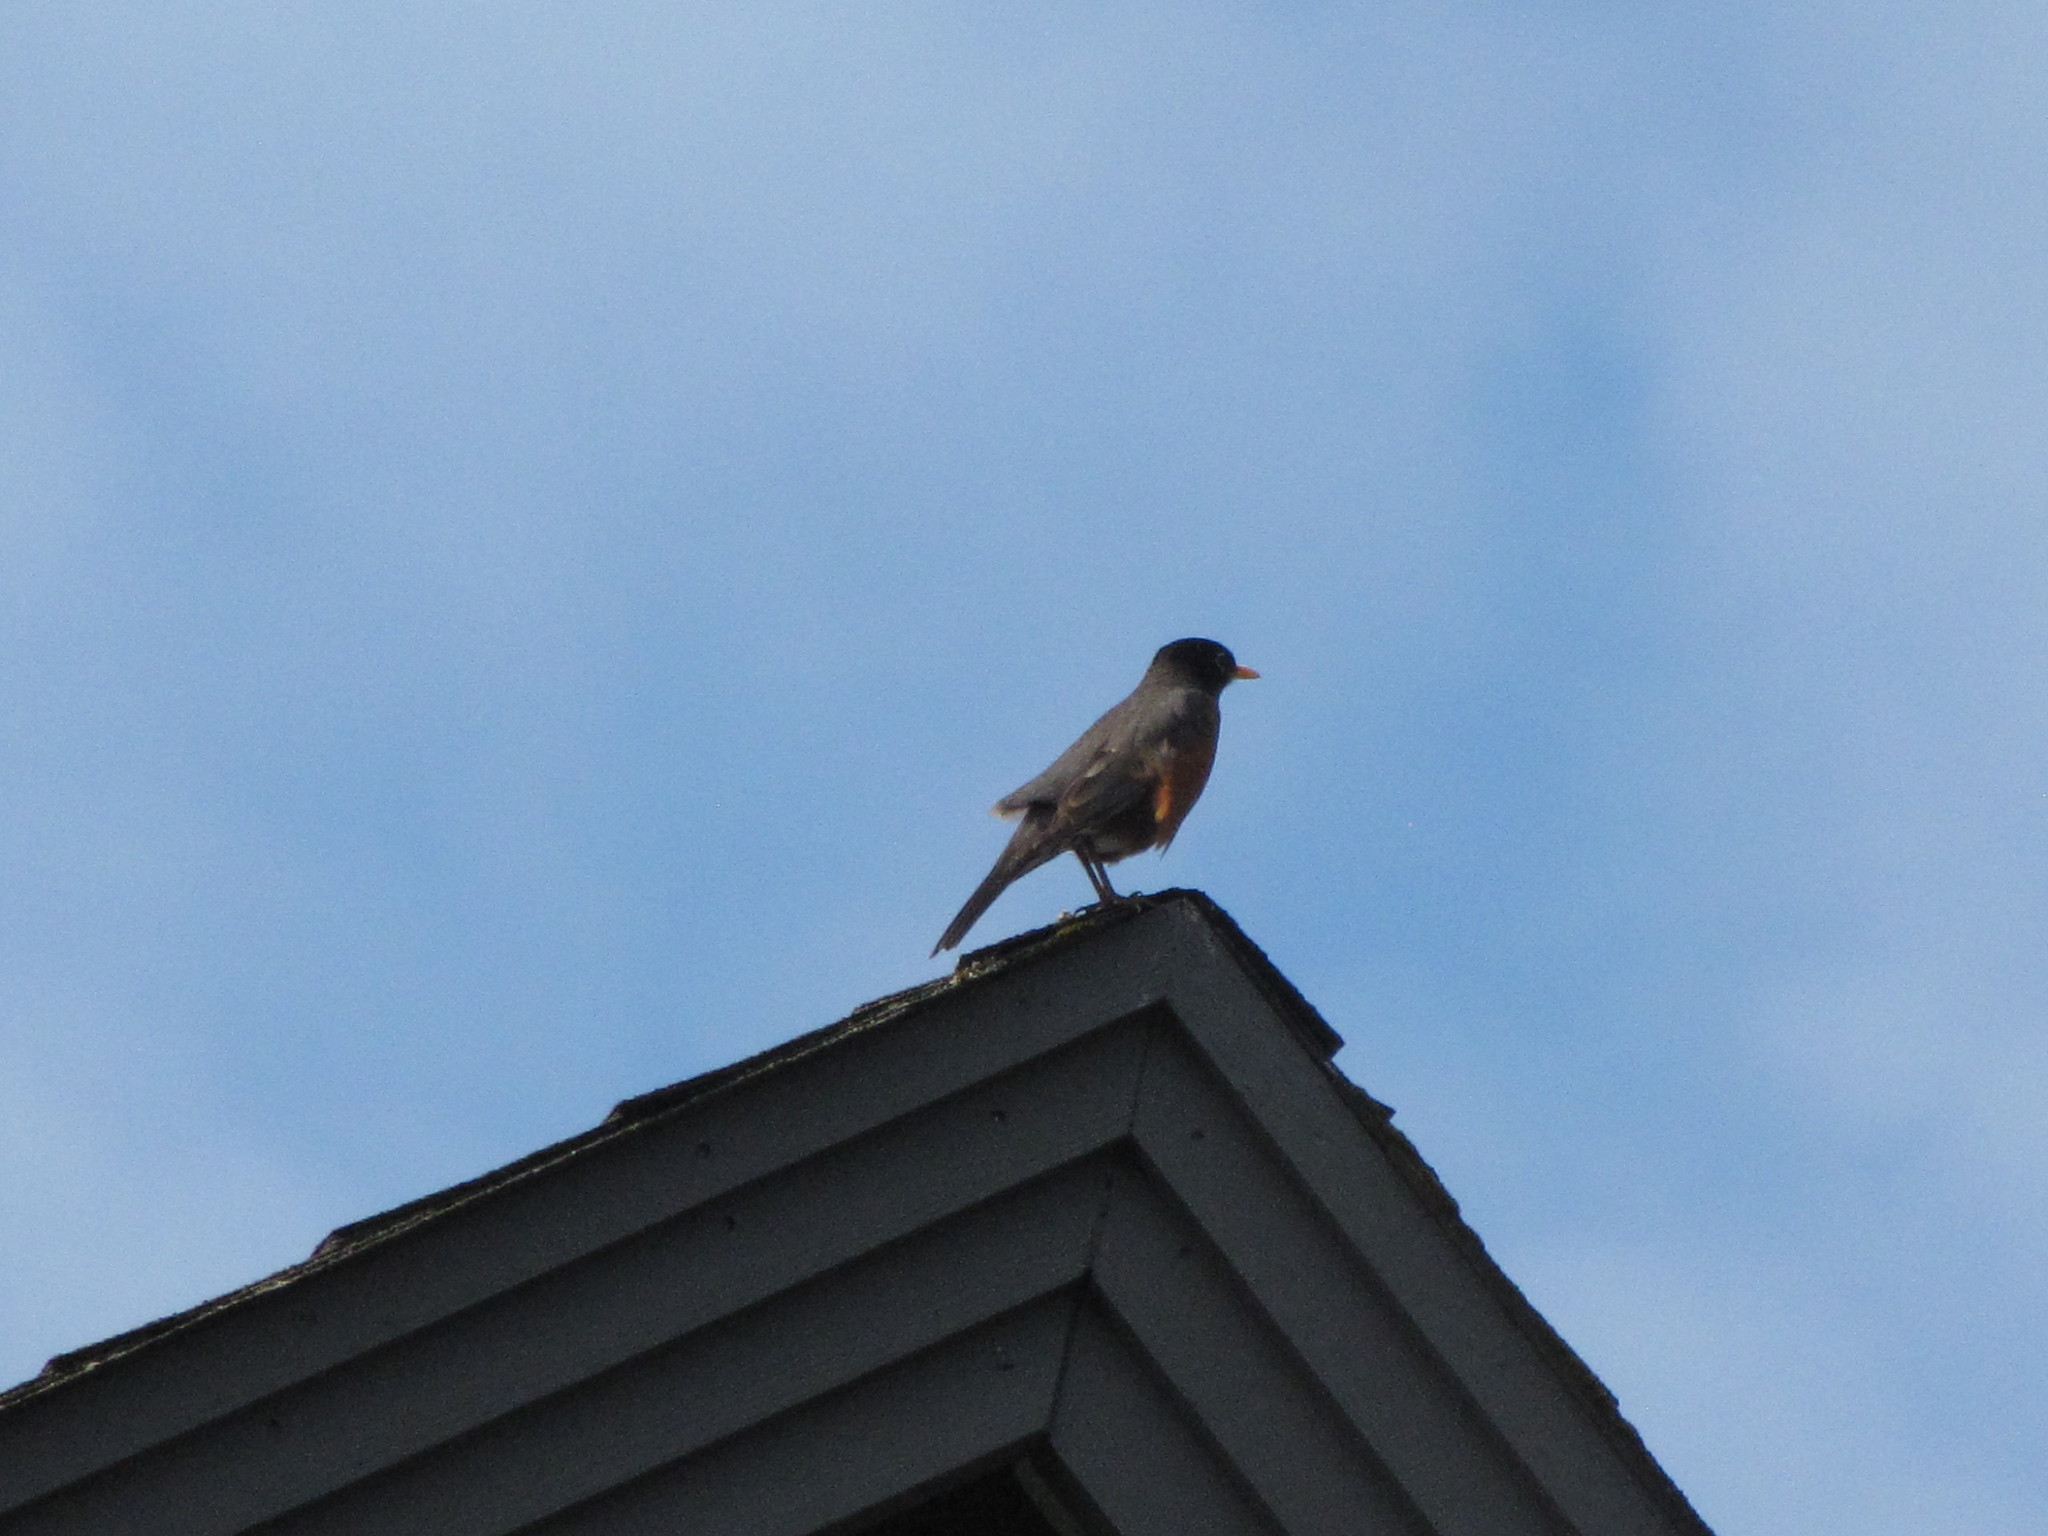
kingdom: Animalia
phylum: Chordata
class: Aves
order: Passeriformes
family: Turdidae
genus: Turdus
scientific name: Turdus migratorius
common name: American robin
